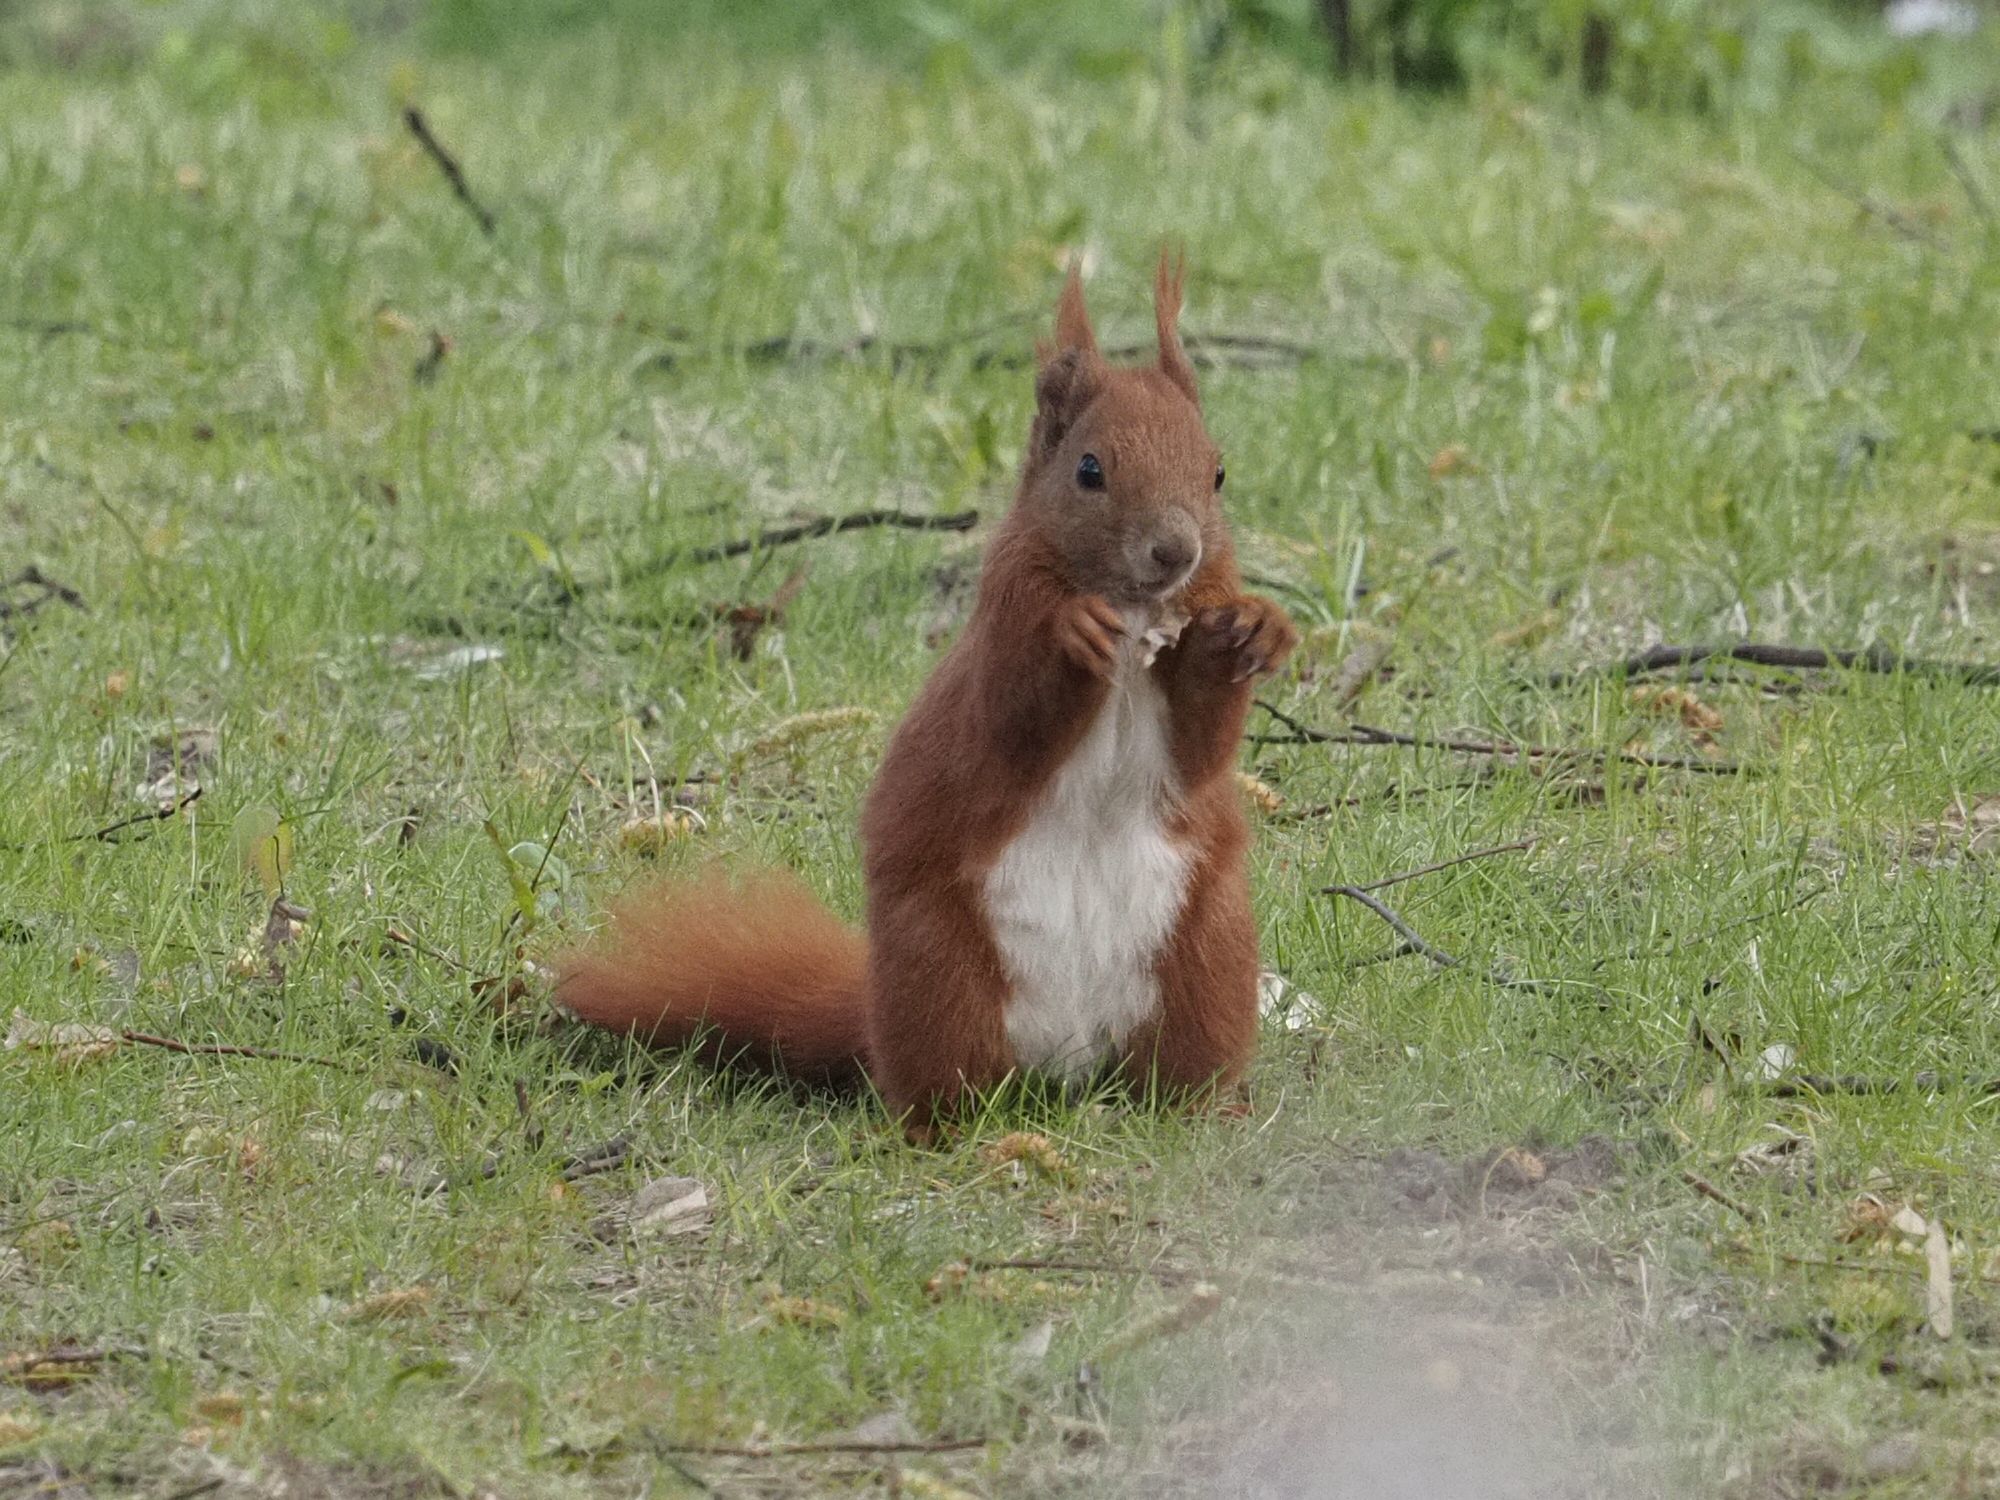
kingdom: Animalia
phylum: Chordata
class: Mammalia
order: Rodentia
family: Sciuridae
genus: Sciurus
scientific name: Sciurus vulgaris
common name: Eurasian red squirrel
